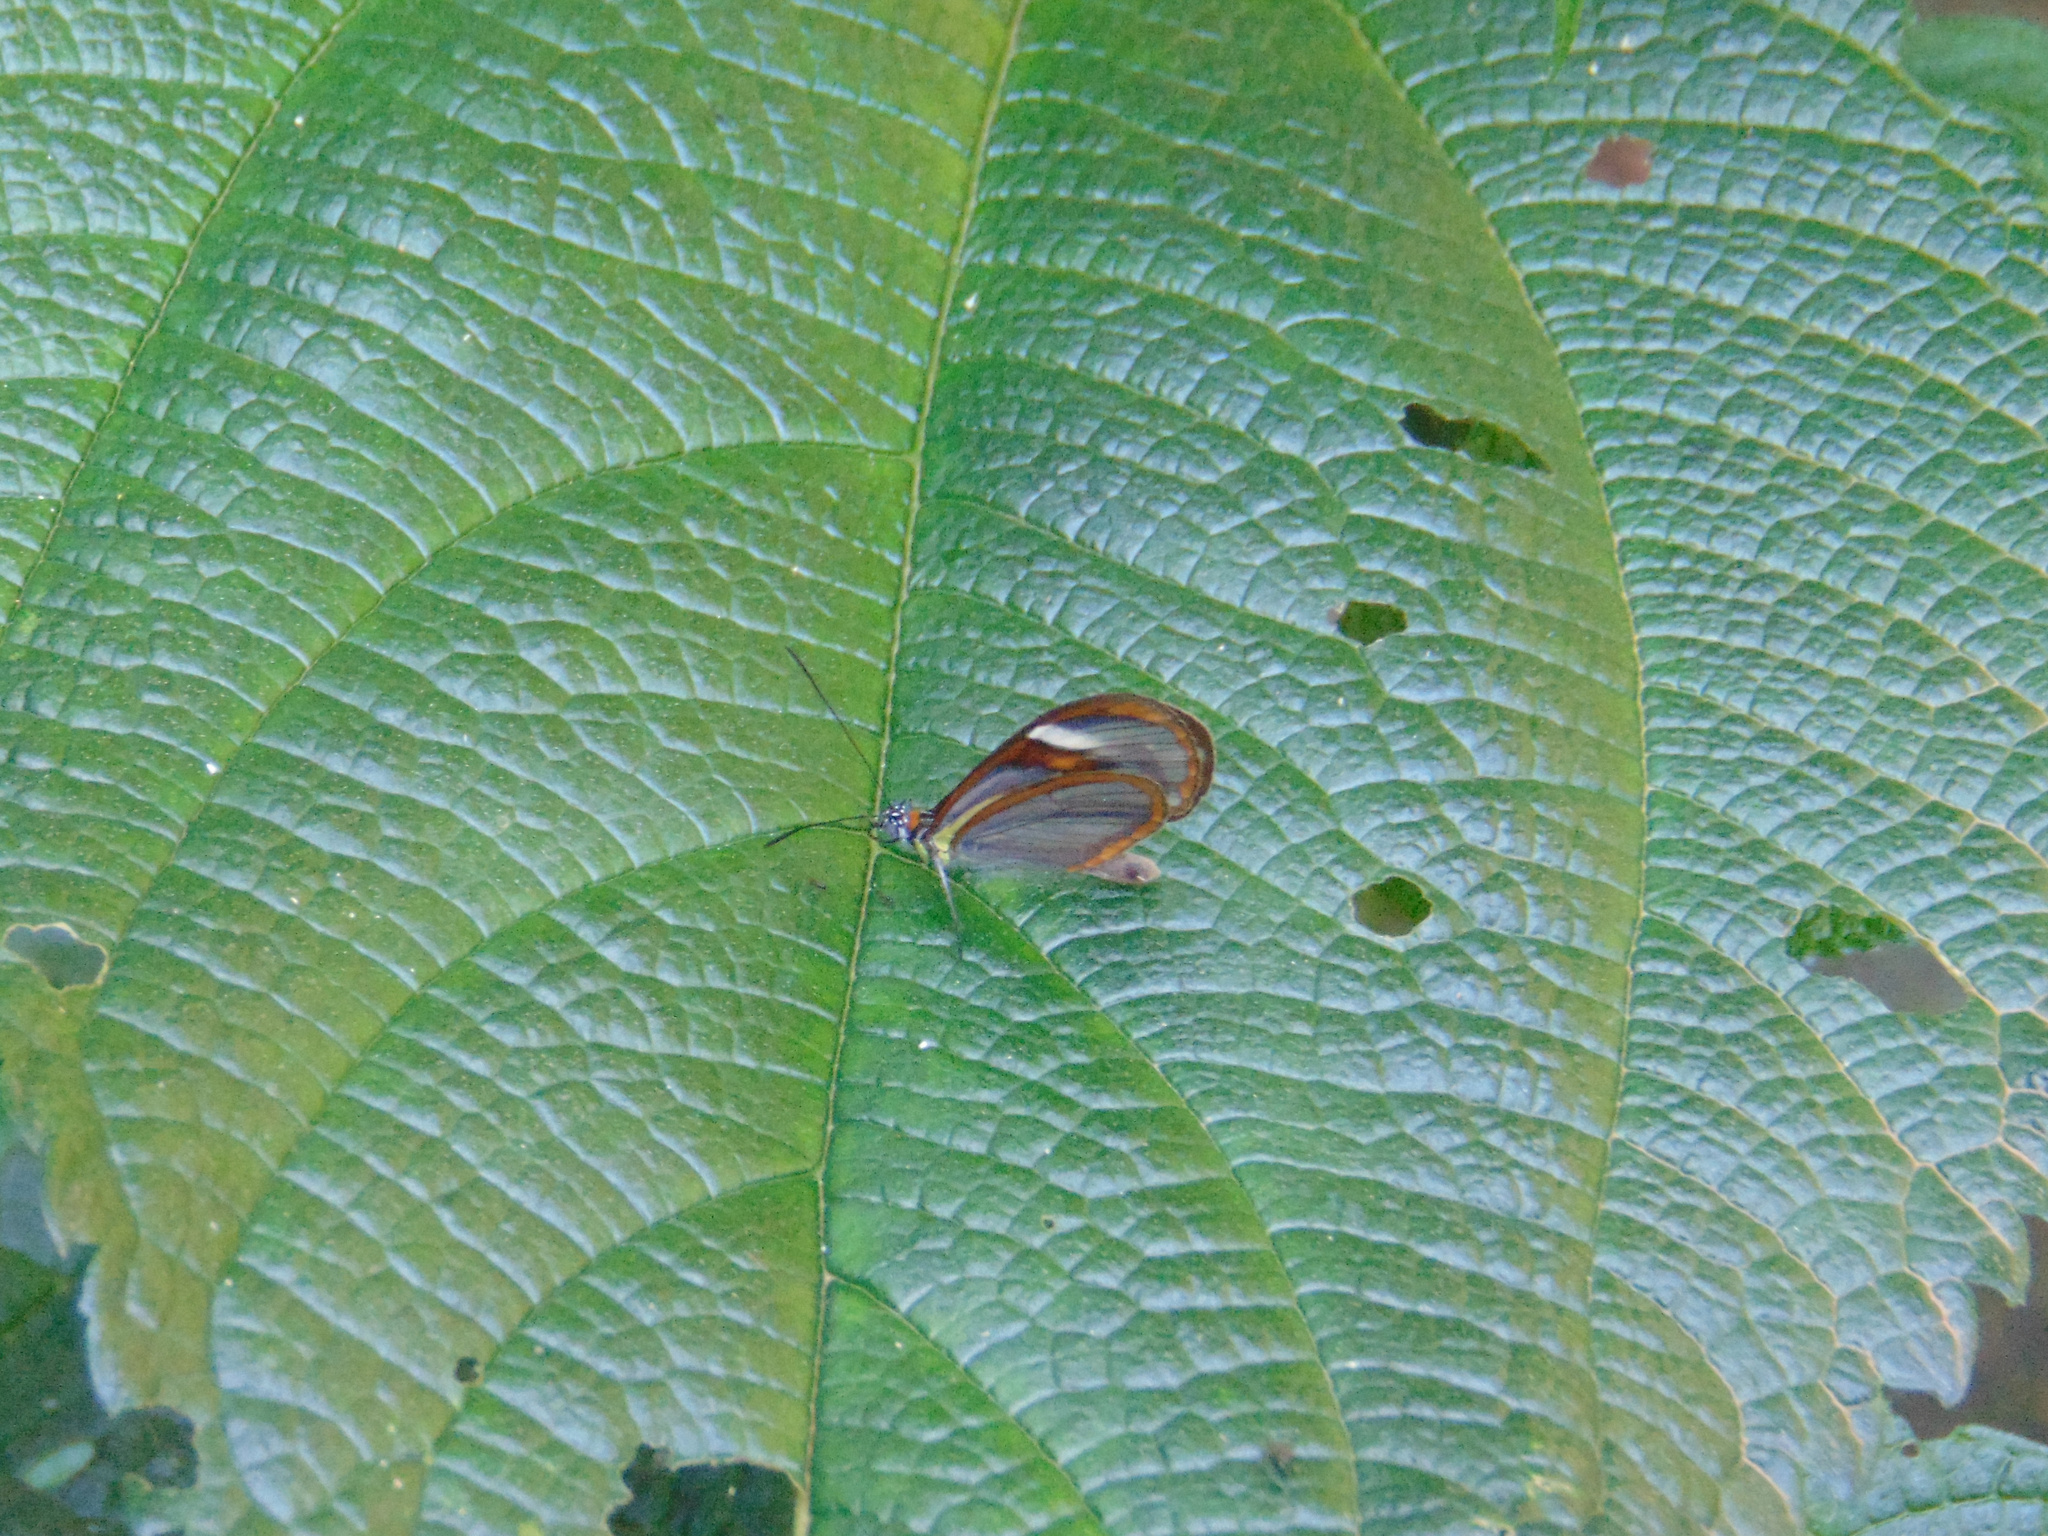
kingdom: Animalia
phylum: Arthropoda
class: Insecta
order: Lepidoptera
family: Nymphalidae
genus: Ithomia
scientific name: Ithomia agnosia
